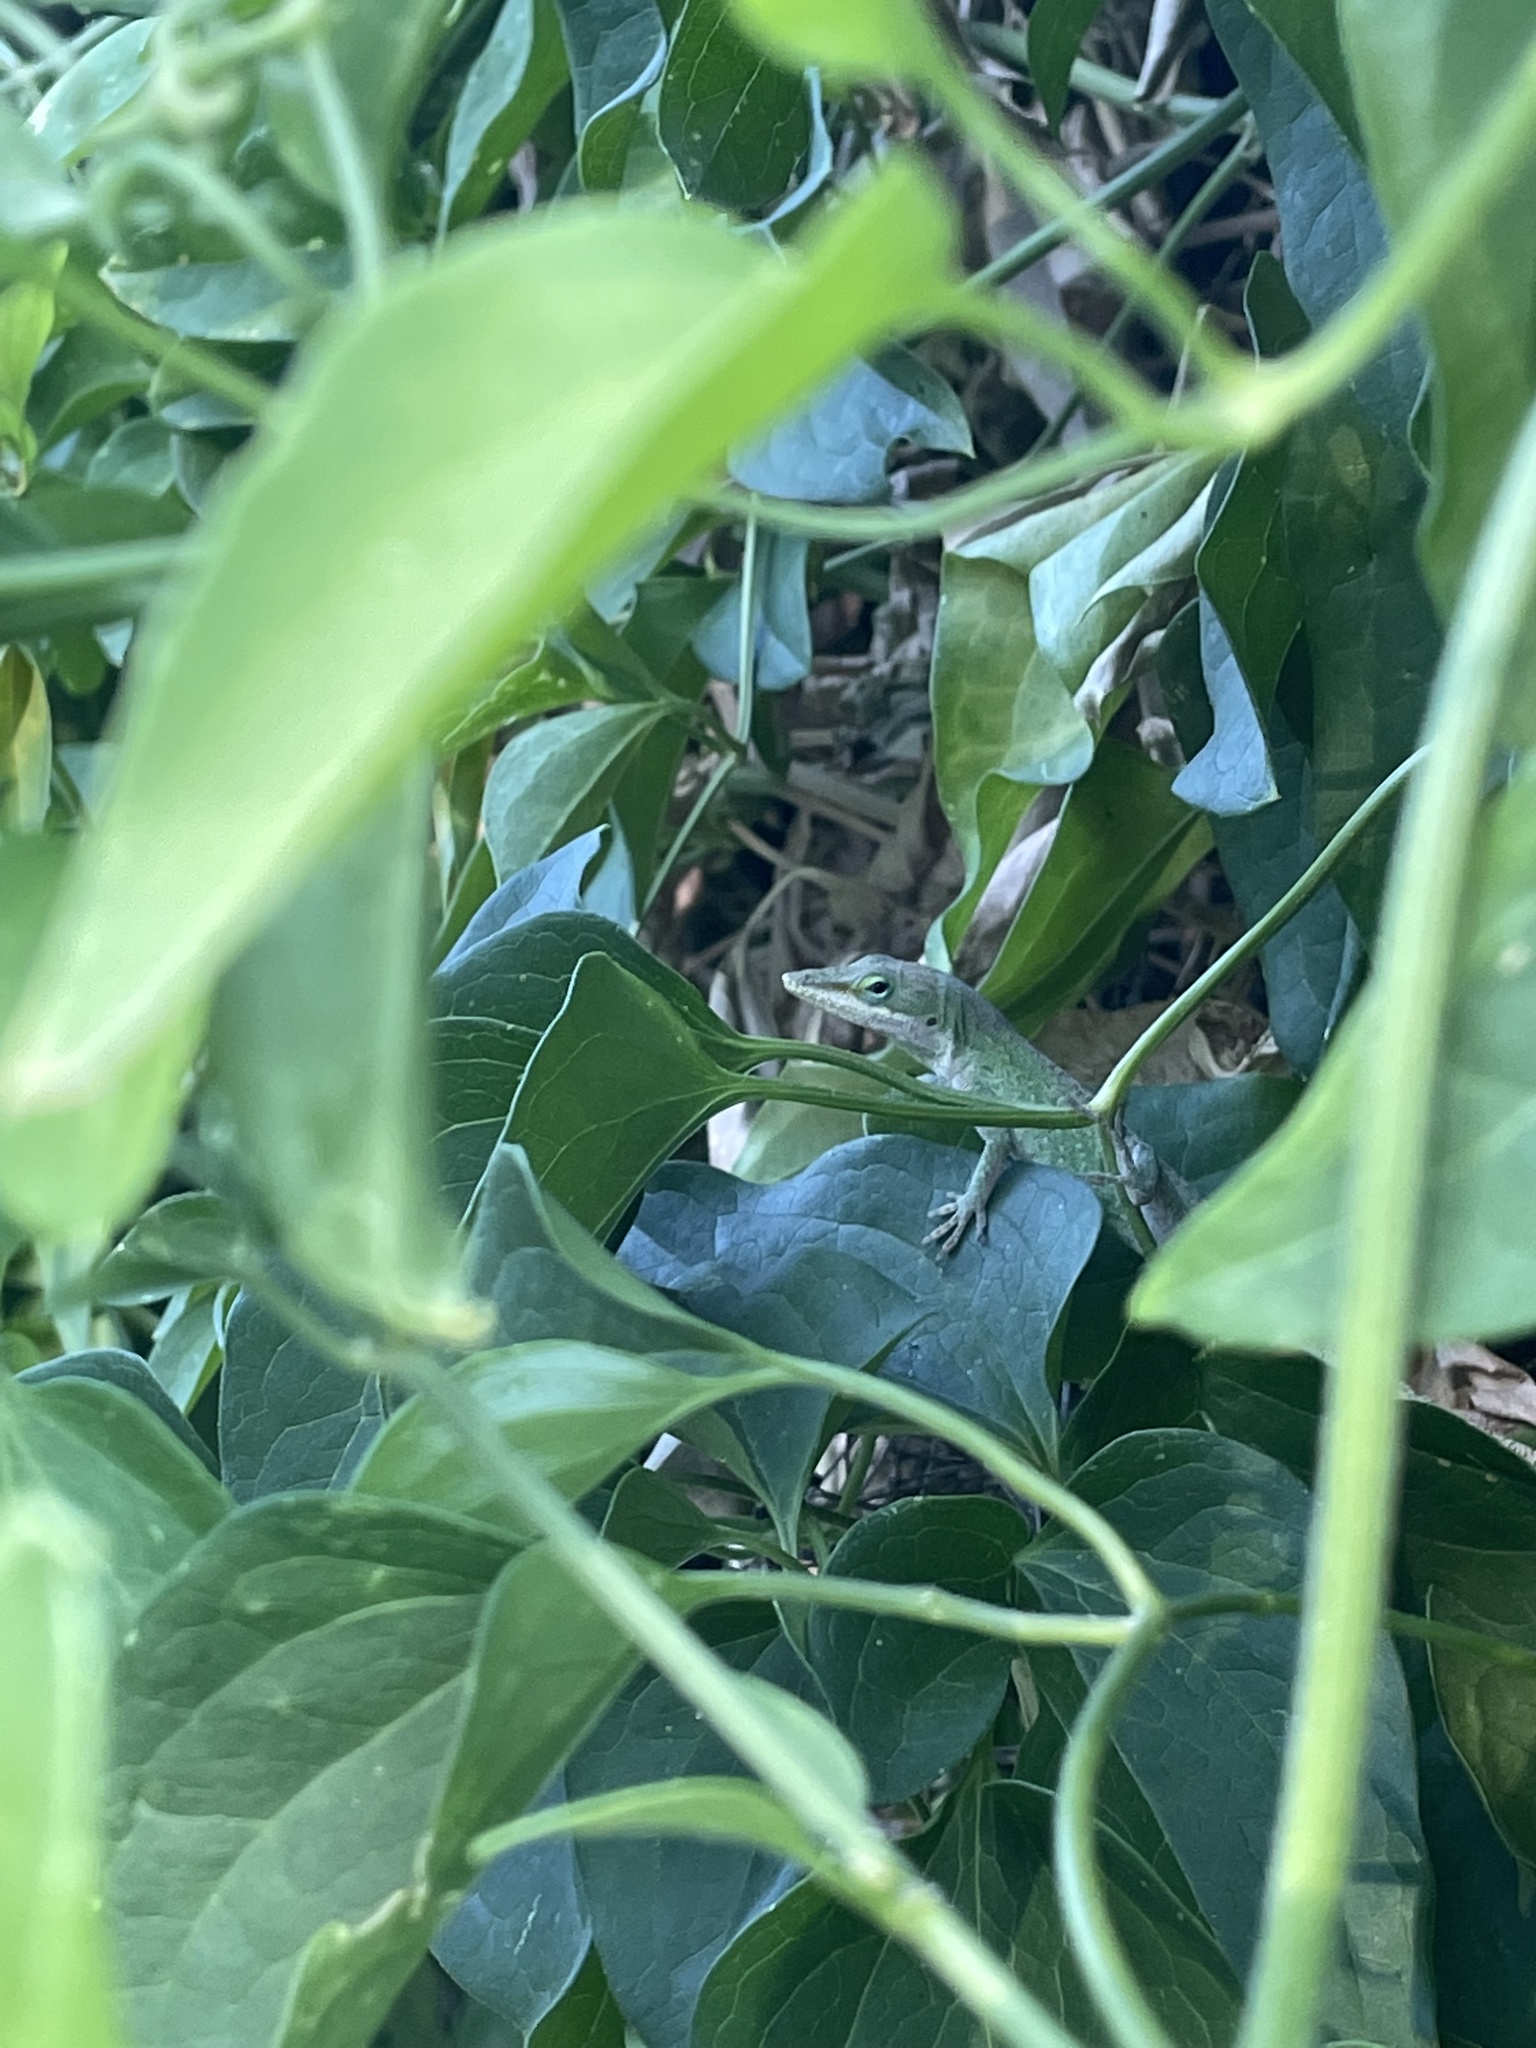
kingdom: Animalia
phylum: Chordata
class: Squamata
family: Dactyloidae
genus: Anolis
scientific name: Anolis carolinensis
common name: Green anole
